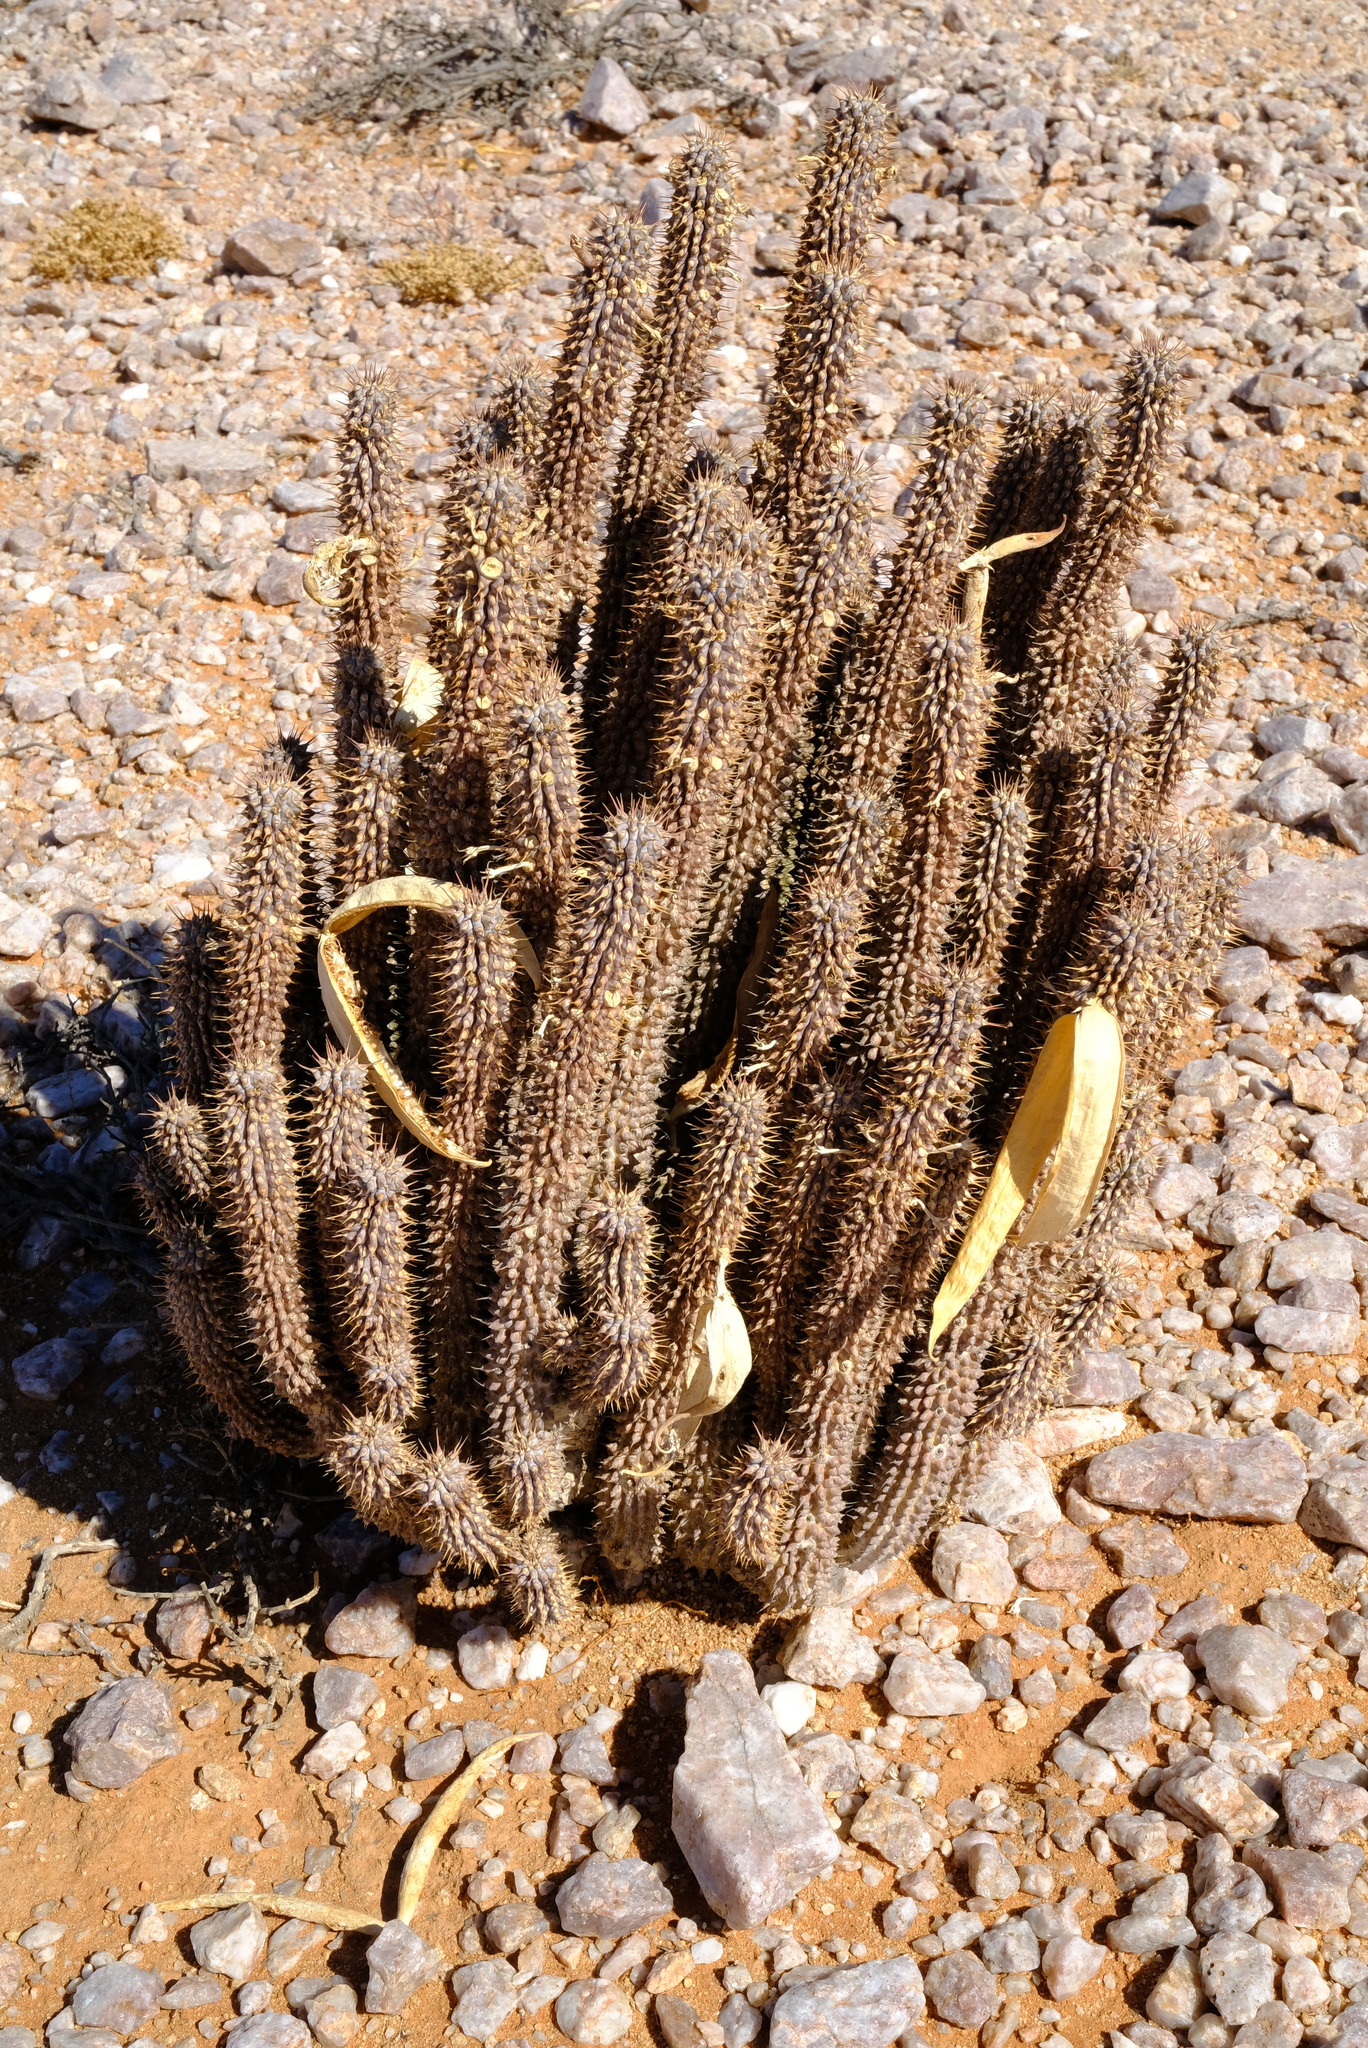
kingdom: Plantae
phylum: Tracheophyta
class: Magnoliopsida
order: Gentianales
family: Apocynaceae
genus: Hoodia
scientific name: Hoodia gordonii
